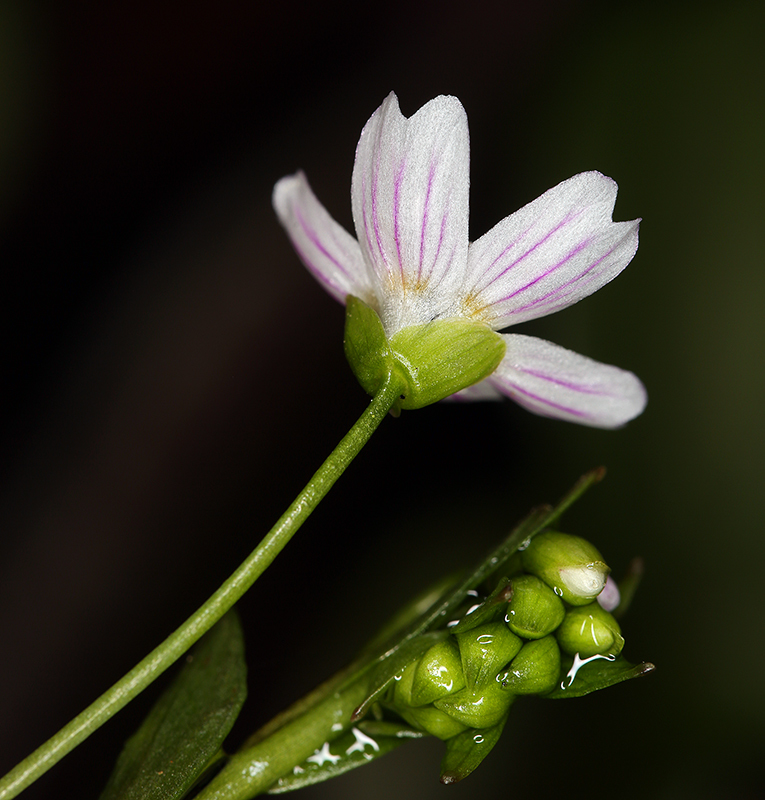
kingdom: Plantae
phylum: Tracheophyta
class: Magnoliopsida
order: Caryophyllales
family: Montiaceae
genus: Claytonia
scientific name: Claytonia sibirica
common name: Pink purslane
